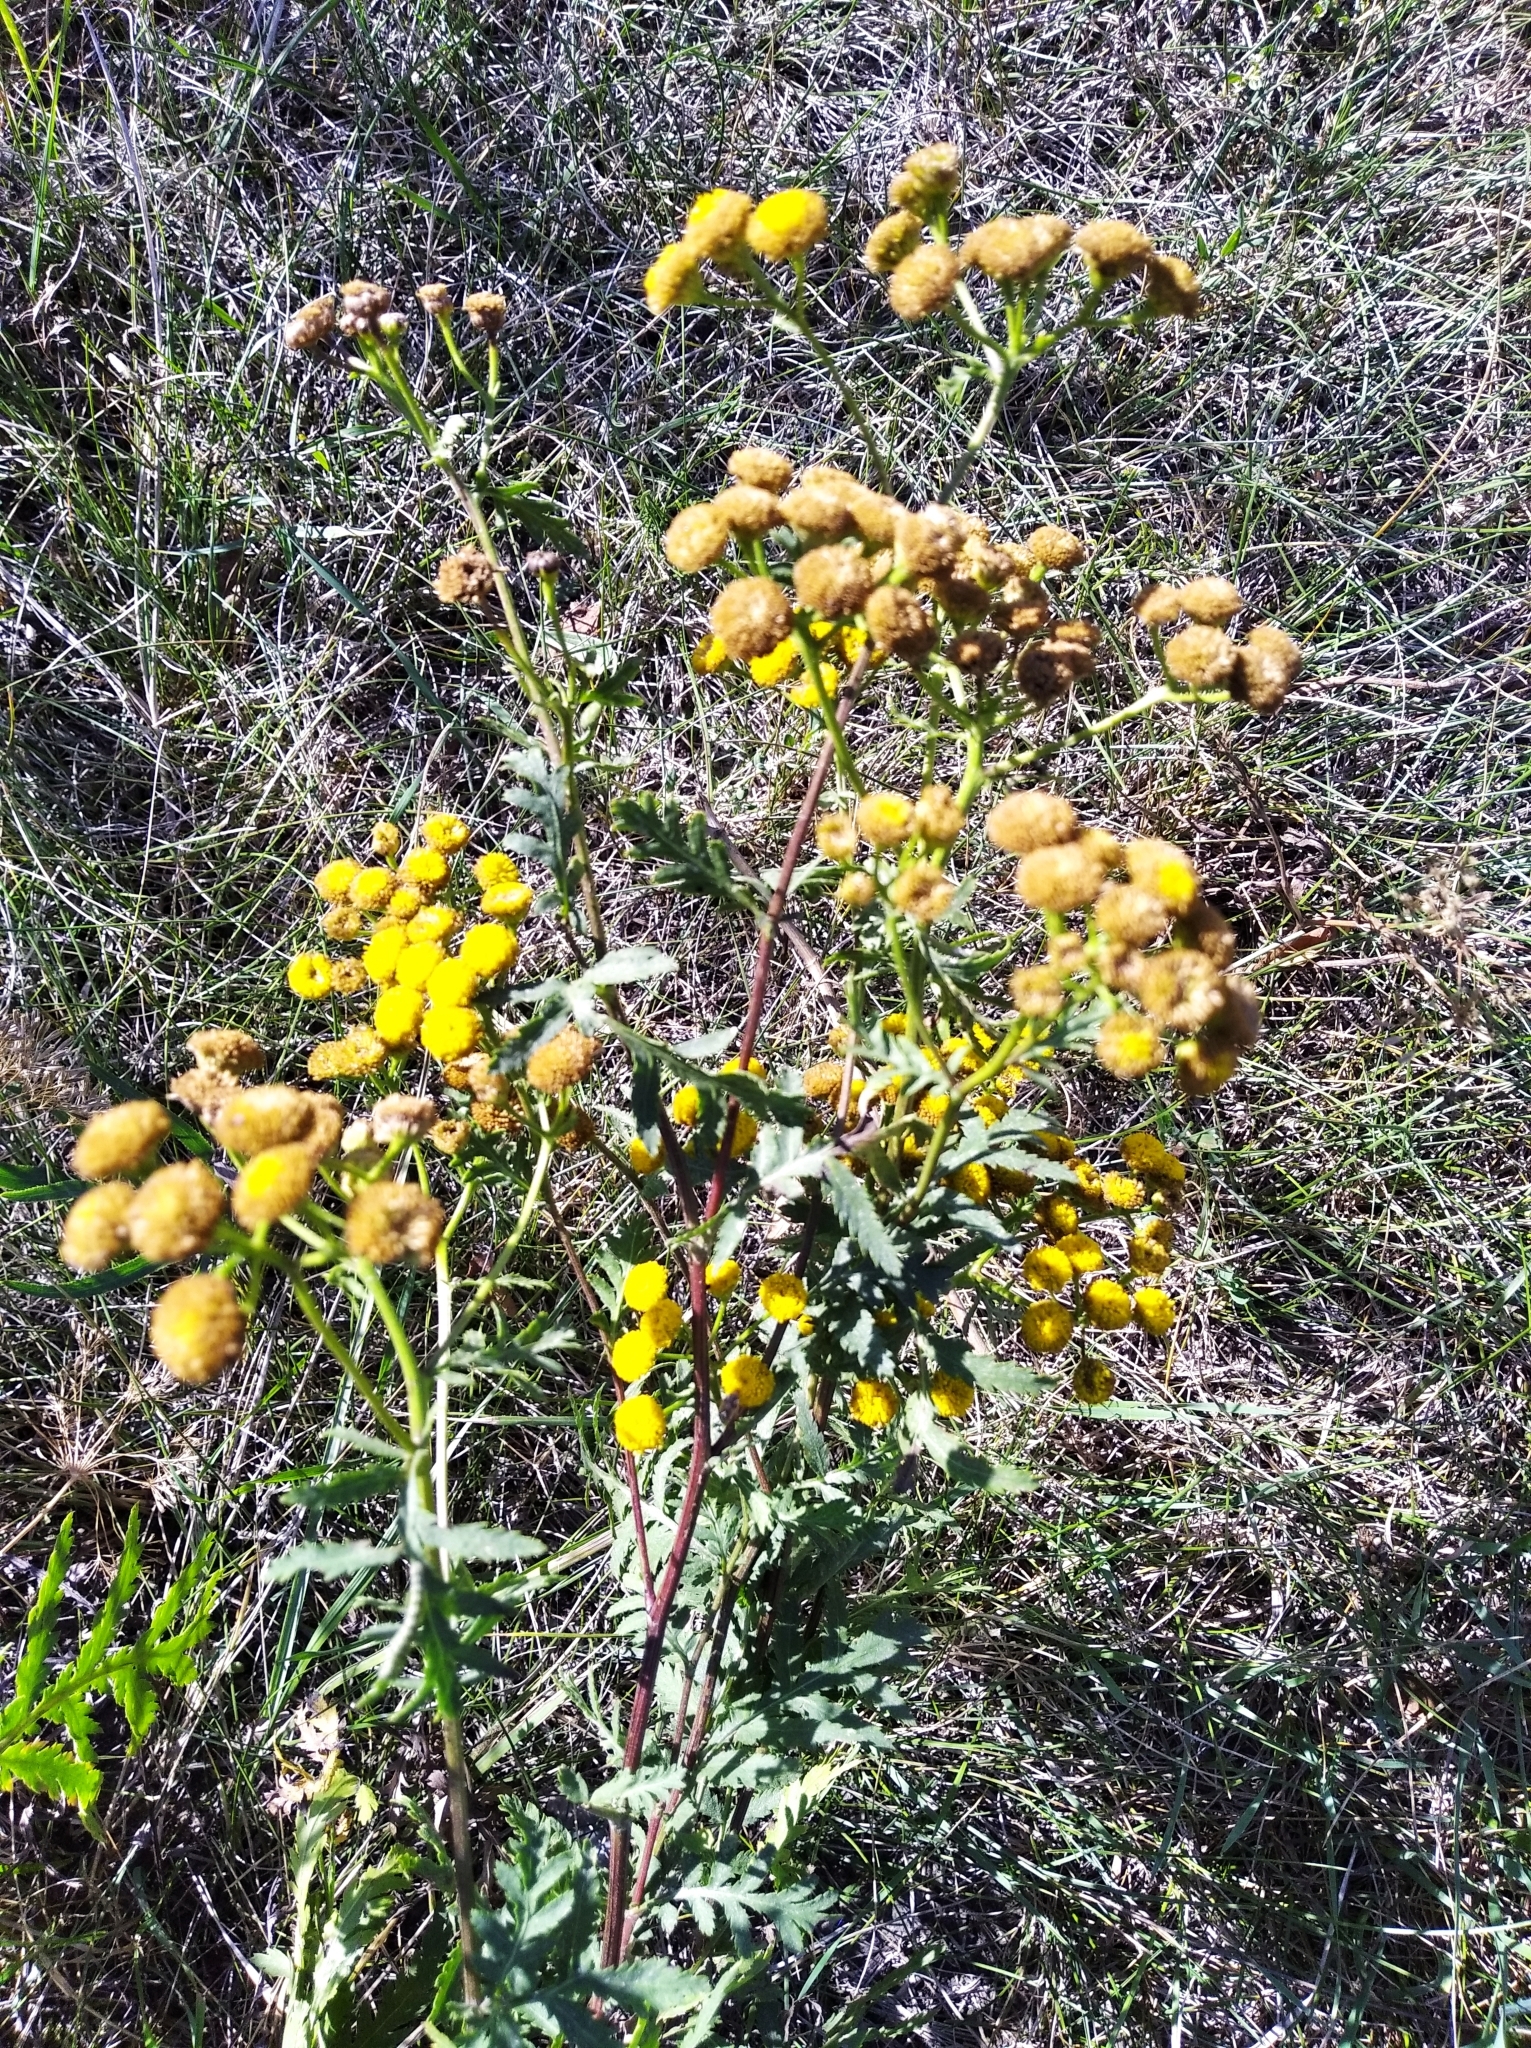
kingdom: Plantae
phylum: Tracheophyta
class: Magnoliopsida
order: Asterales
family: Asteraceae
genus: Tanacetum
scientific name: Tanacetum vulgare
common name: Common tansy
